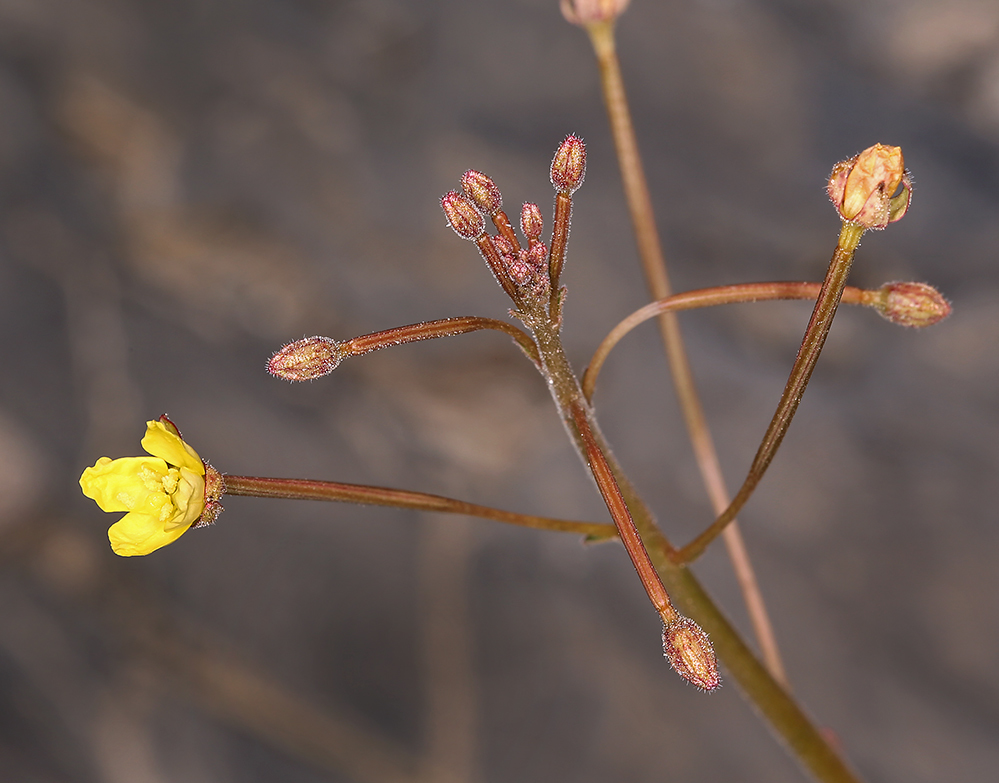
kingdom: Plantae
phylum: Tracheophyta
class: Magnoliopsida
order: Myrtales
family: Onagraceae
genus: Chylismia
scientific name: Chylismia walkeri
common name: Walker's suncup
